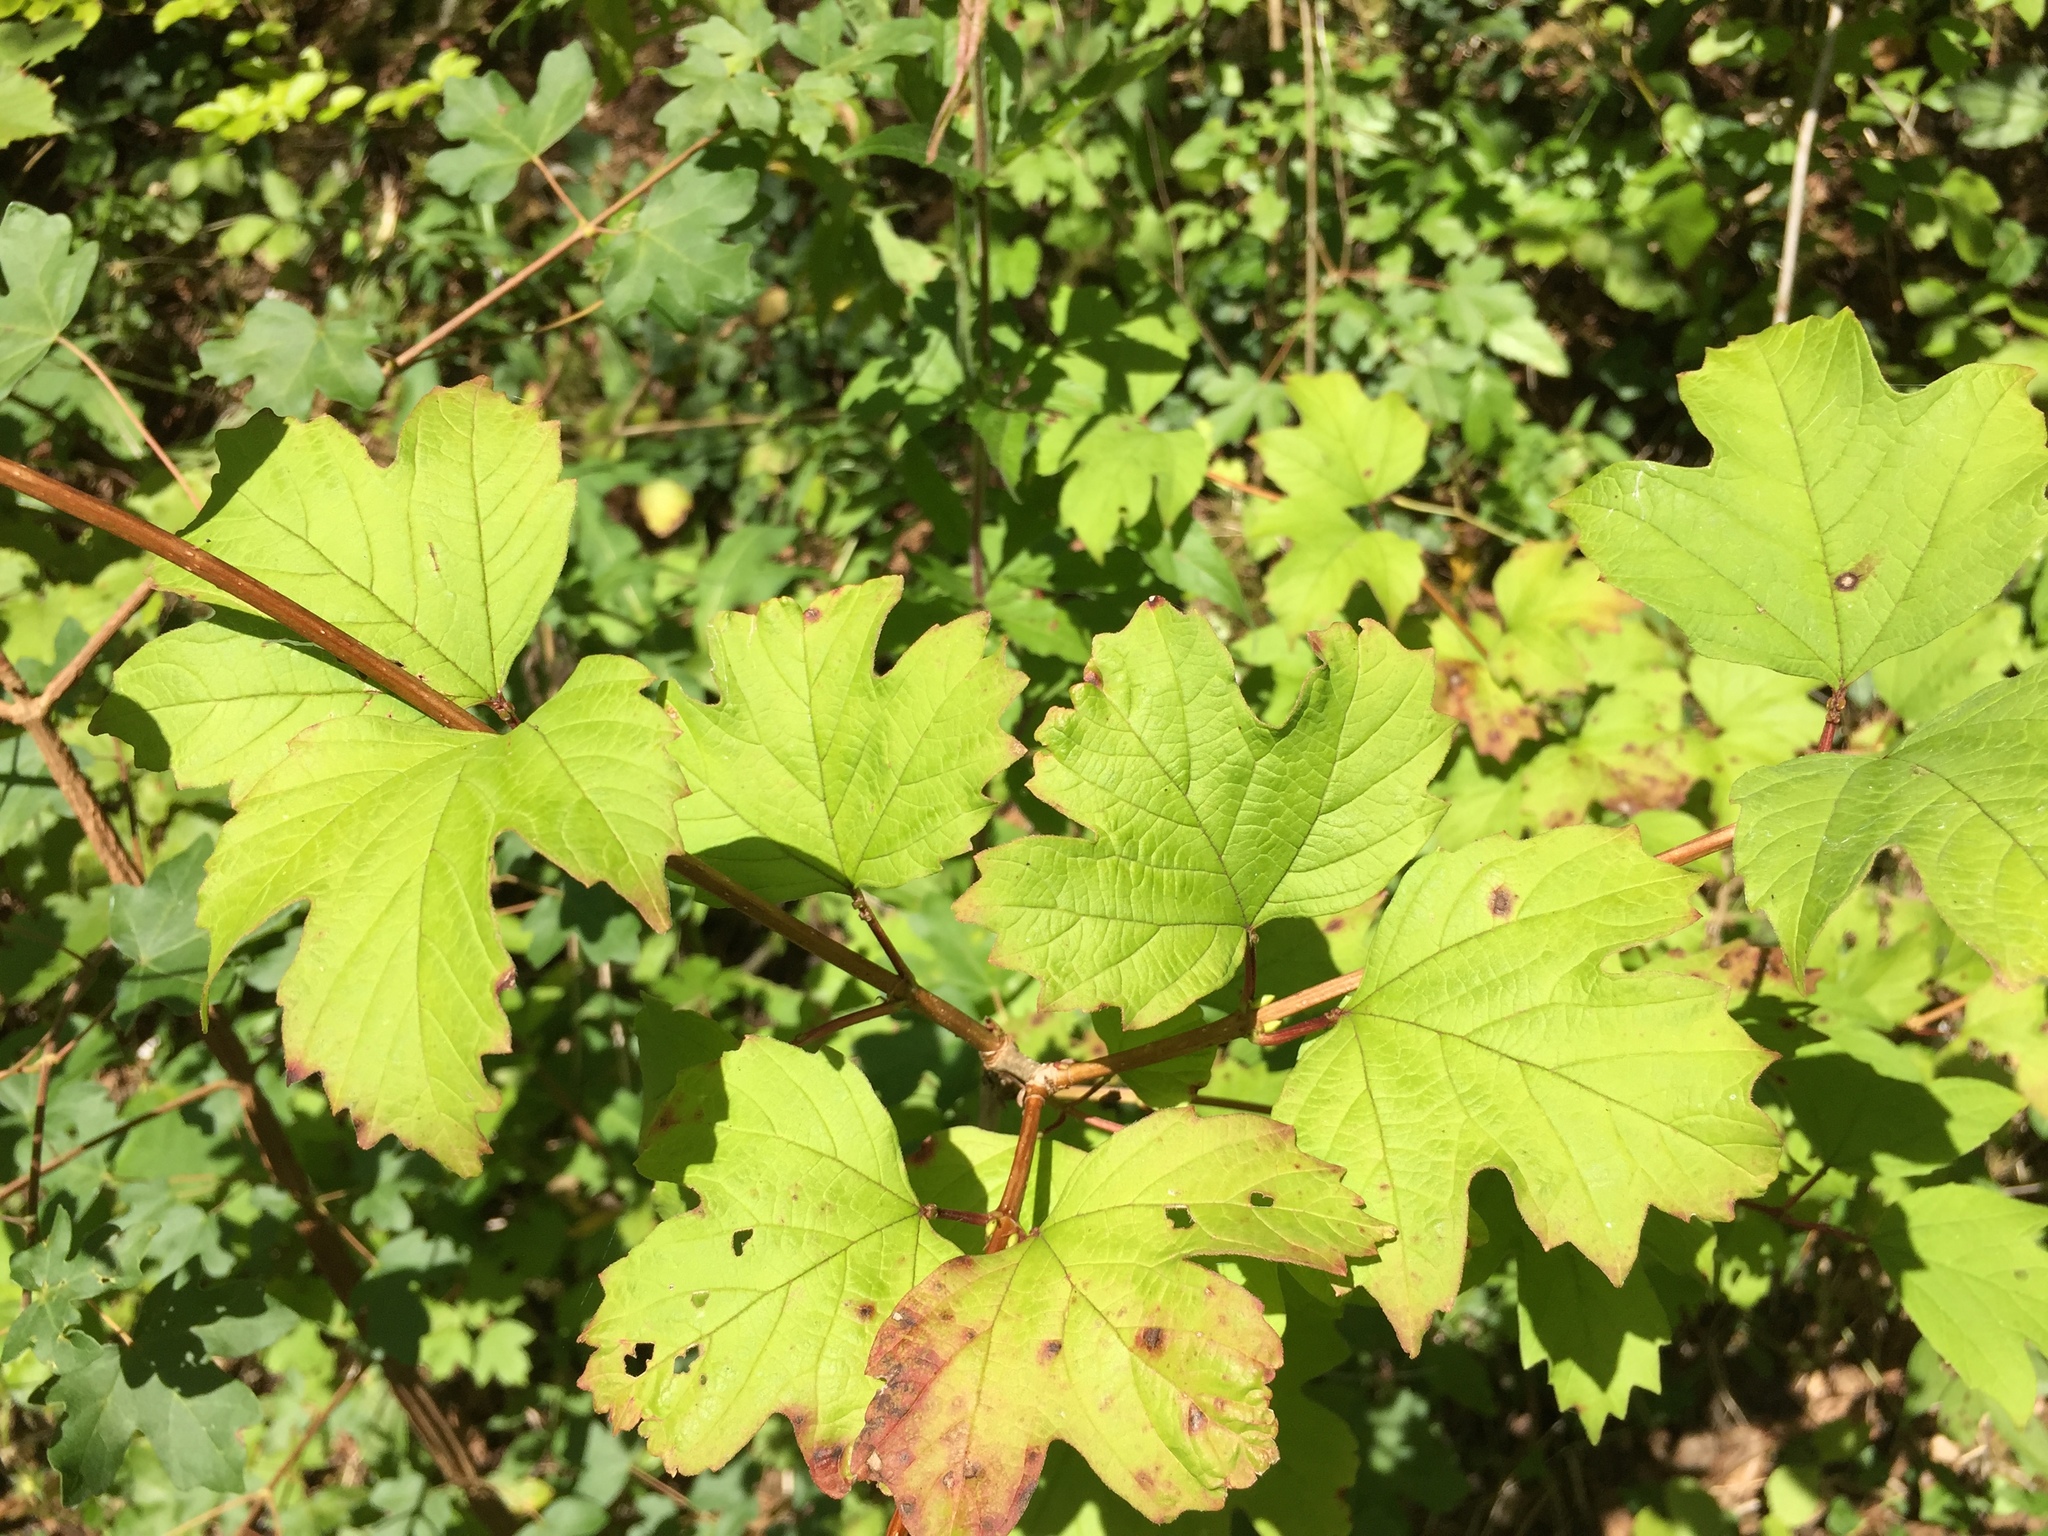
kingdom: Plantae
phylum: Tracheophyta
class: Magnoliopsida
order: Dipsacales
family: Viburnaceae
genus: Viburnum
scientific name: Viburnum opulus
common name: Guelder-rose
